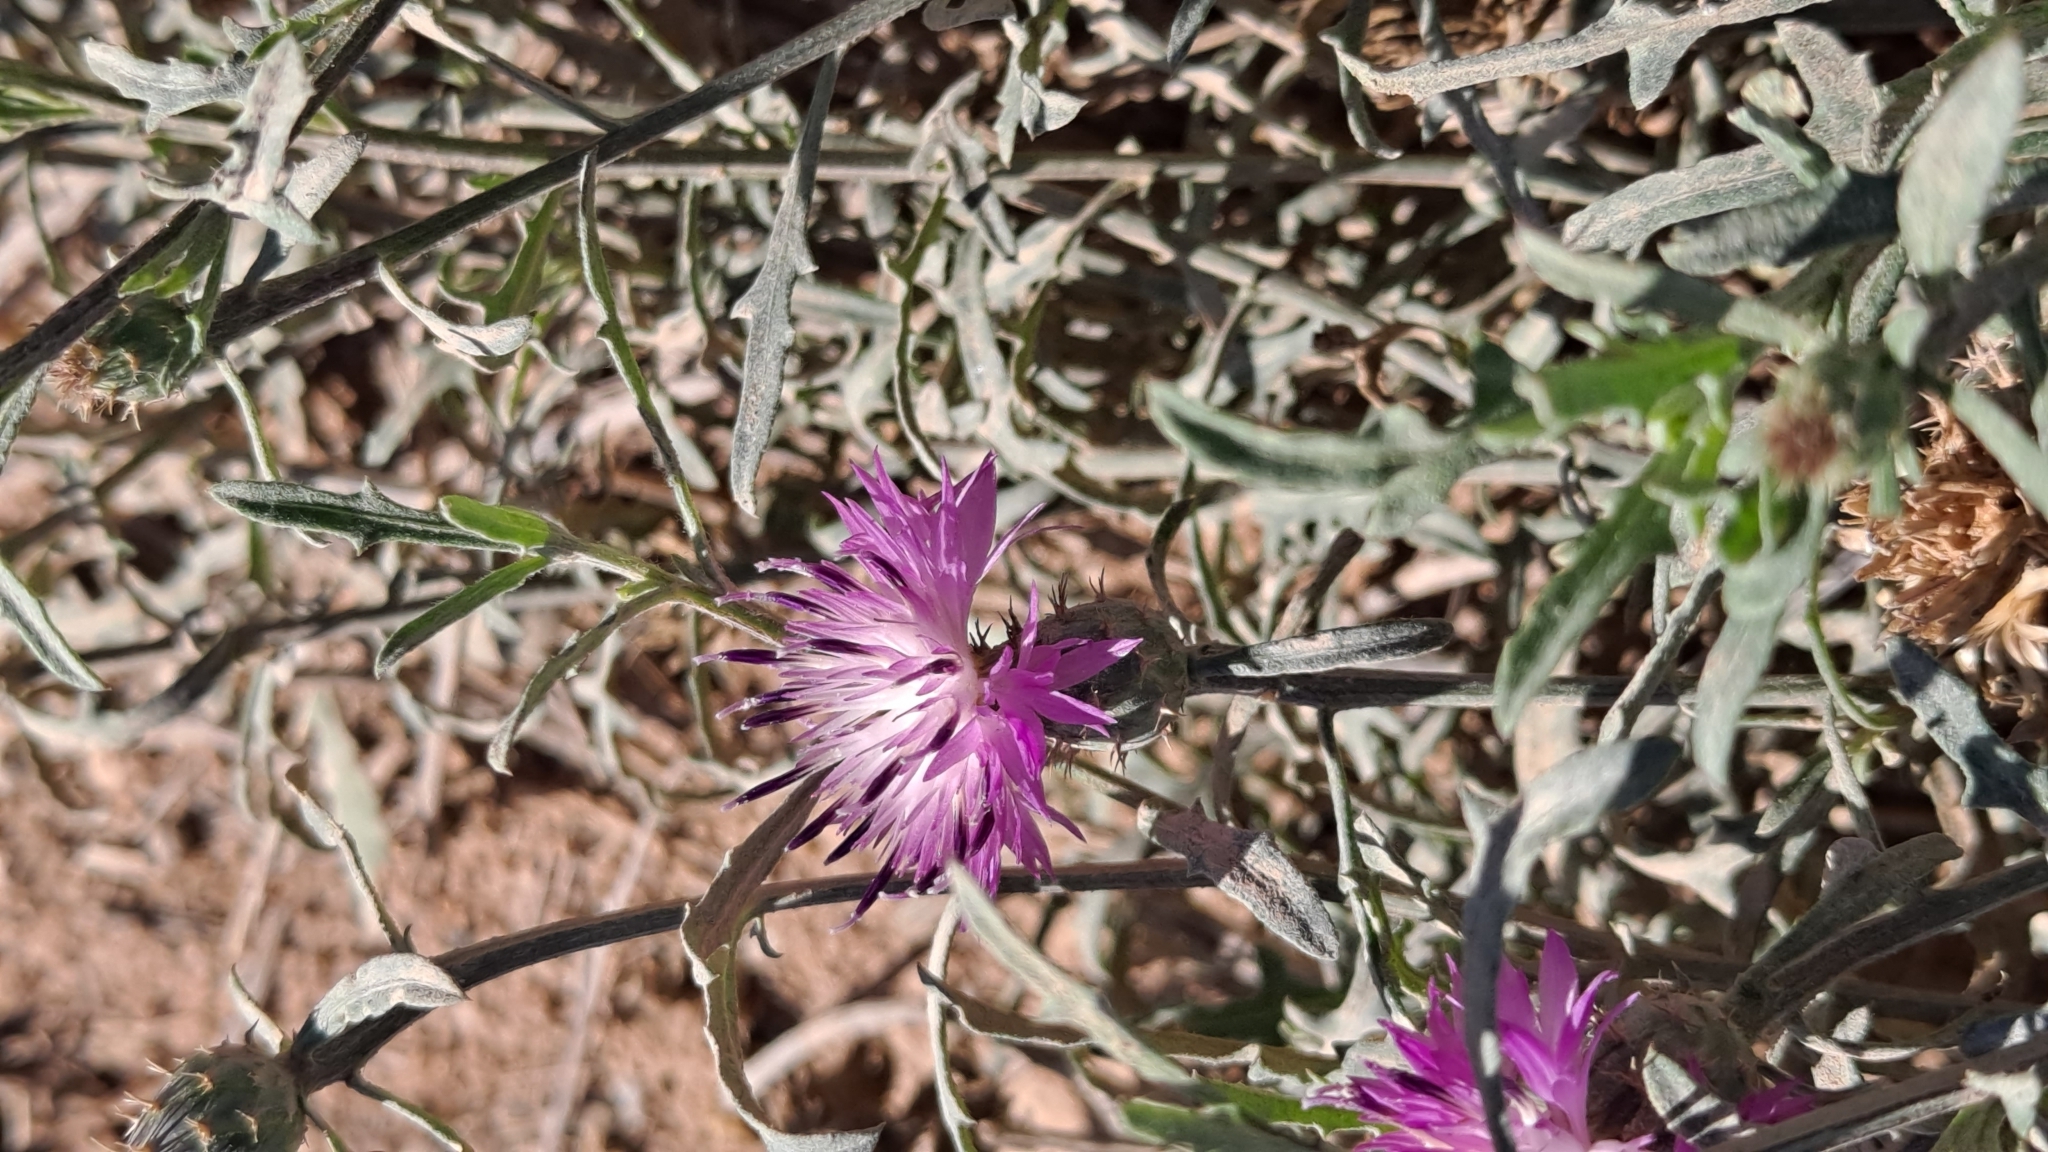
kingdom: Plantae
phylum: Tracheophyta
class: Magnoliopsida
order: Asterales
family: Asteraceae
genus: Centaurea
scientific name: Centaurea aspera
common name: Rough star-thistle
